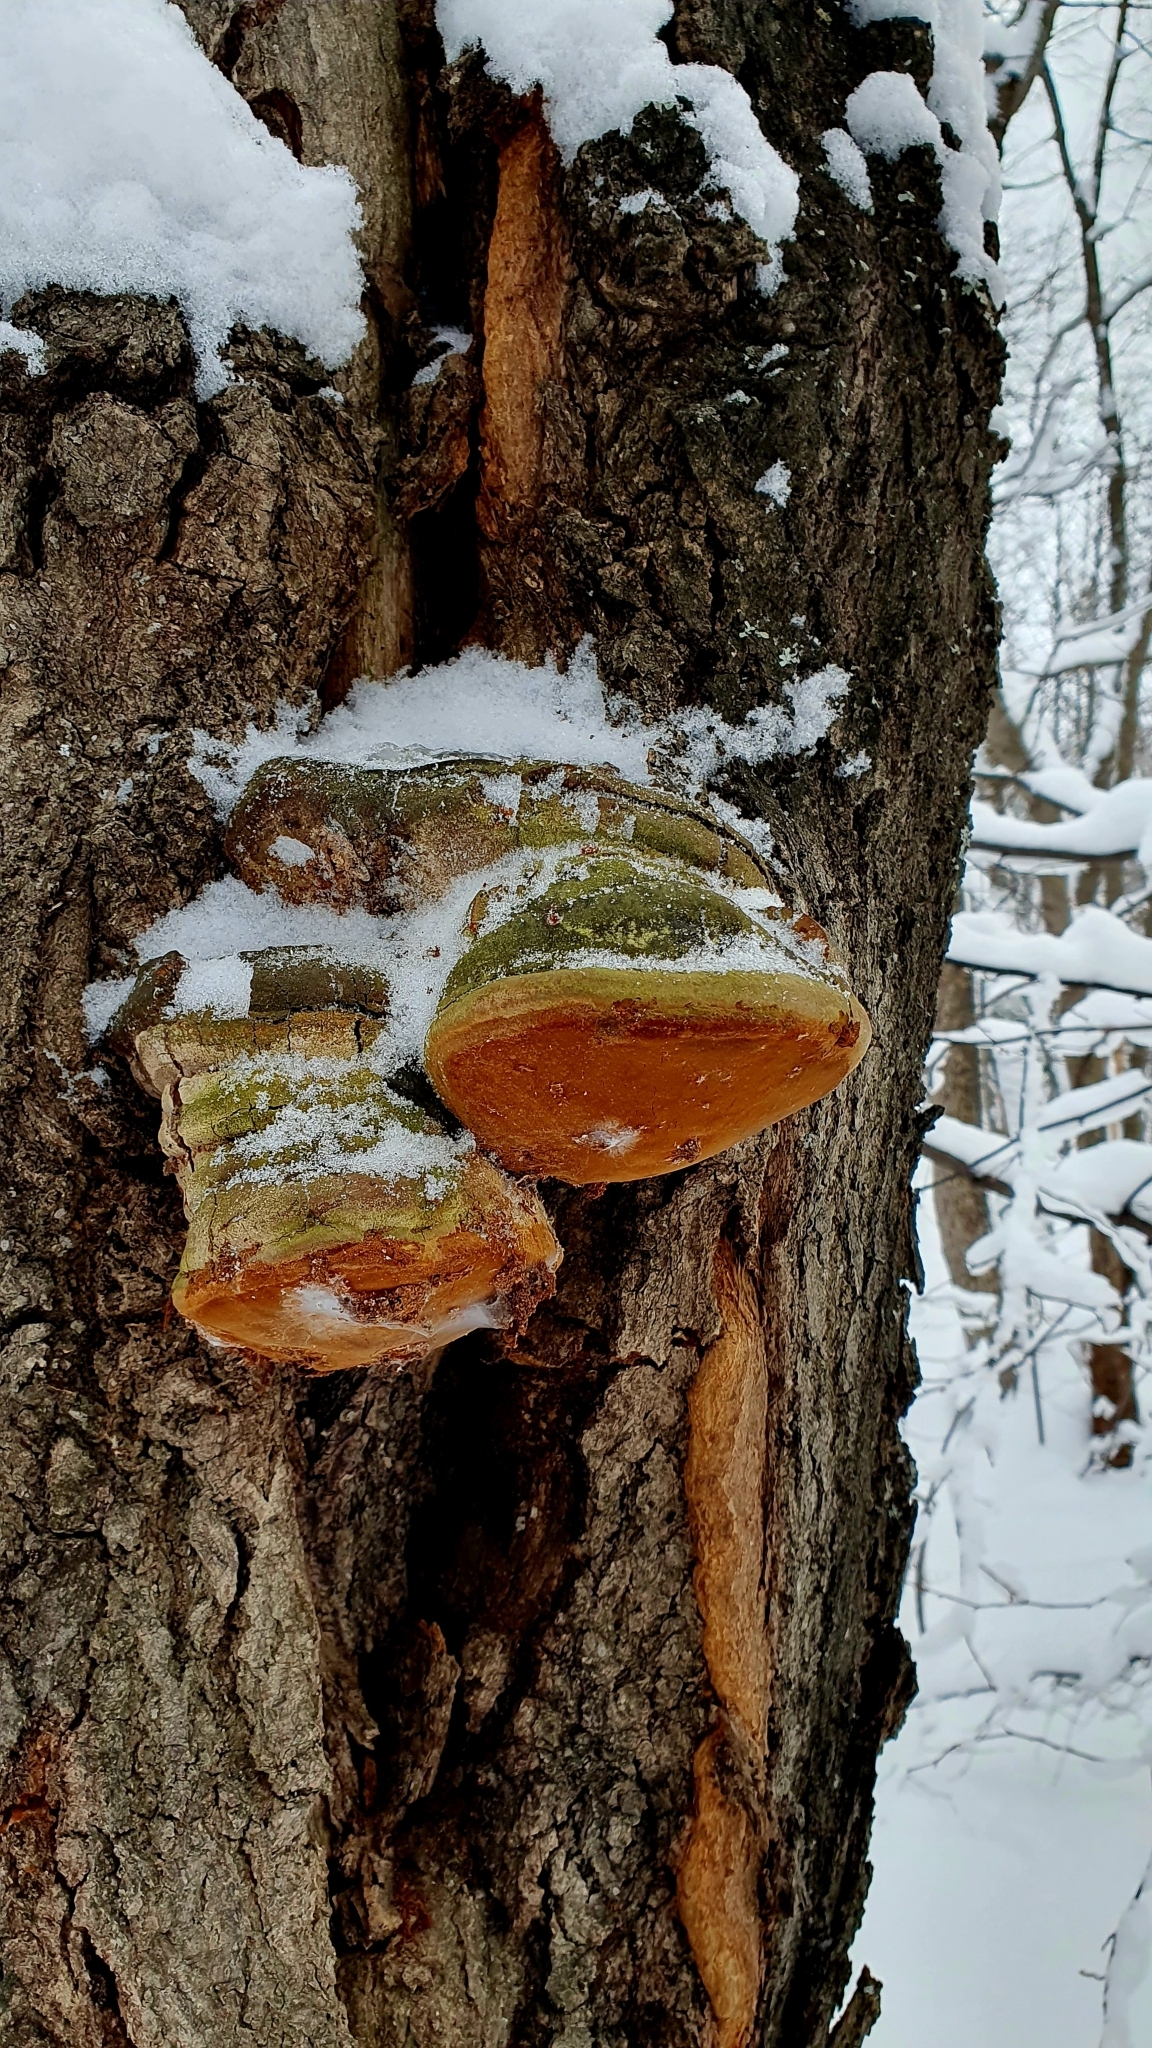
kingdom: Fungi
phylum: Basidiomycota
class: Agaricomycetes
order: Hymenochaetales
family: Hymenochaetaceae
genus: Fomitiporia
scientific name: Fomitiporia robusta
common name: Robust bracket
